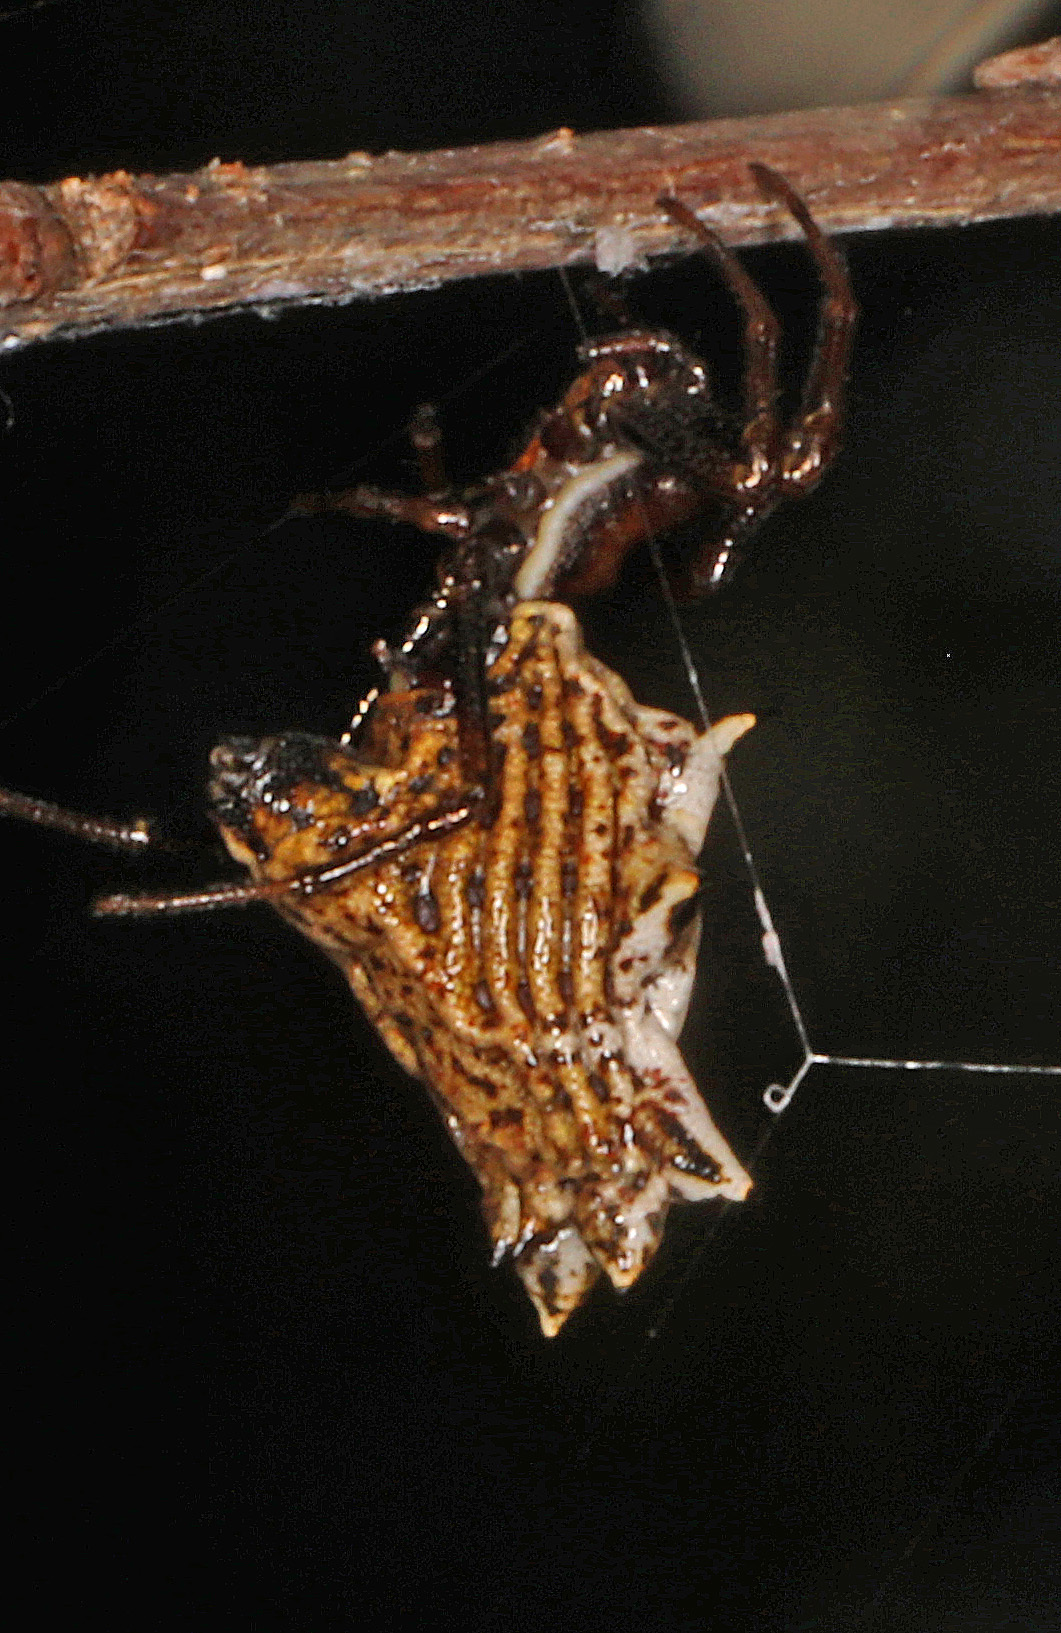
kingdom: Animalia
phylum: Arthropoda
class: Arachnida
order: Araneae
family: Araneidae
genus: Micrathena
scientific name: Micrathena gracilis
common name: Orb weavers
